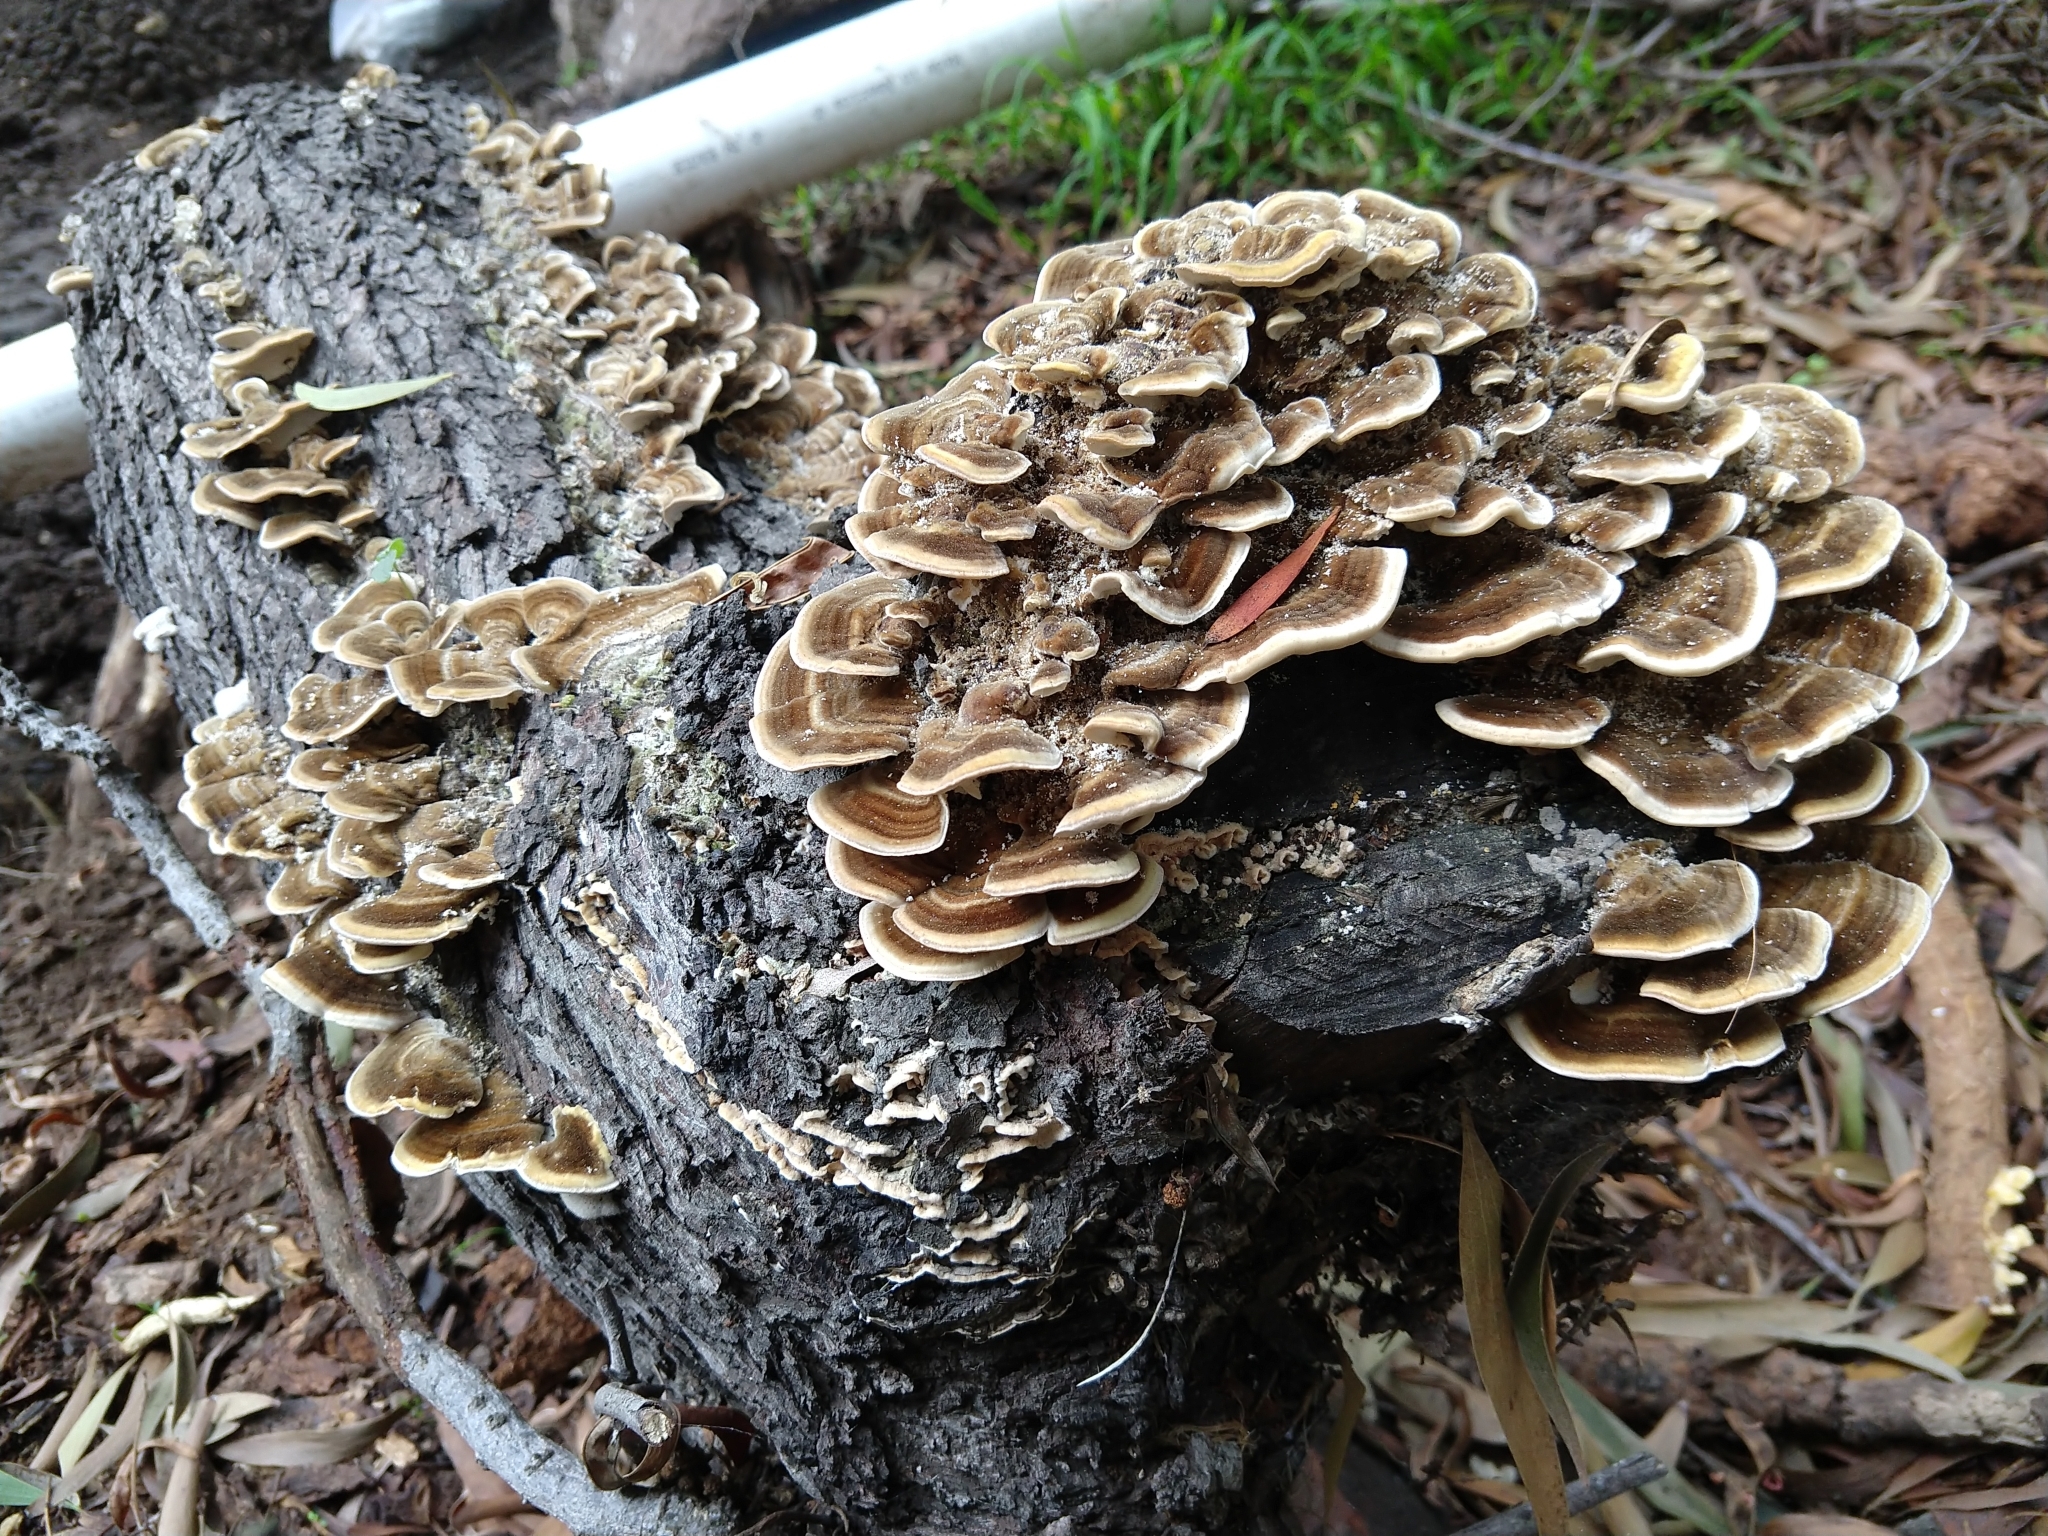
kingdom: Fungi
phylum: Basidiomycota
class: Agaricomycetes
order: Polyporales
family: Polyporaceae
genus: Trametes
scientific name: Trametes versicolor
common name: Turkeytail
